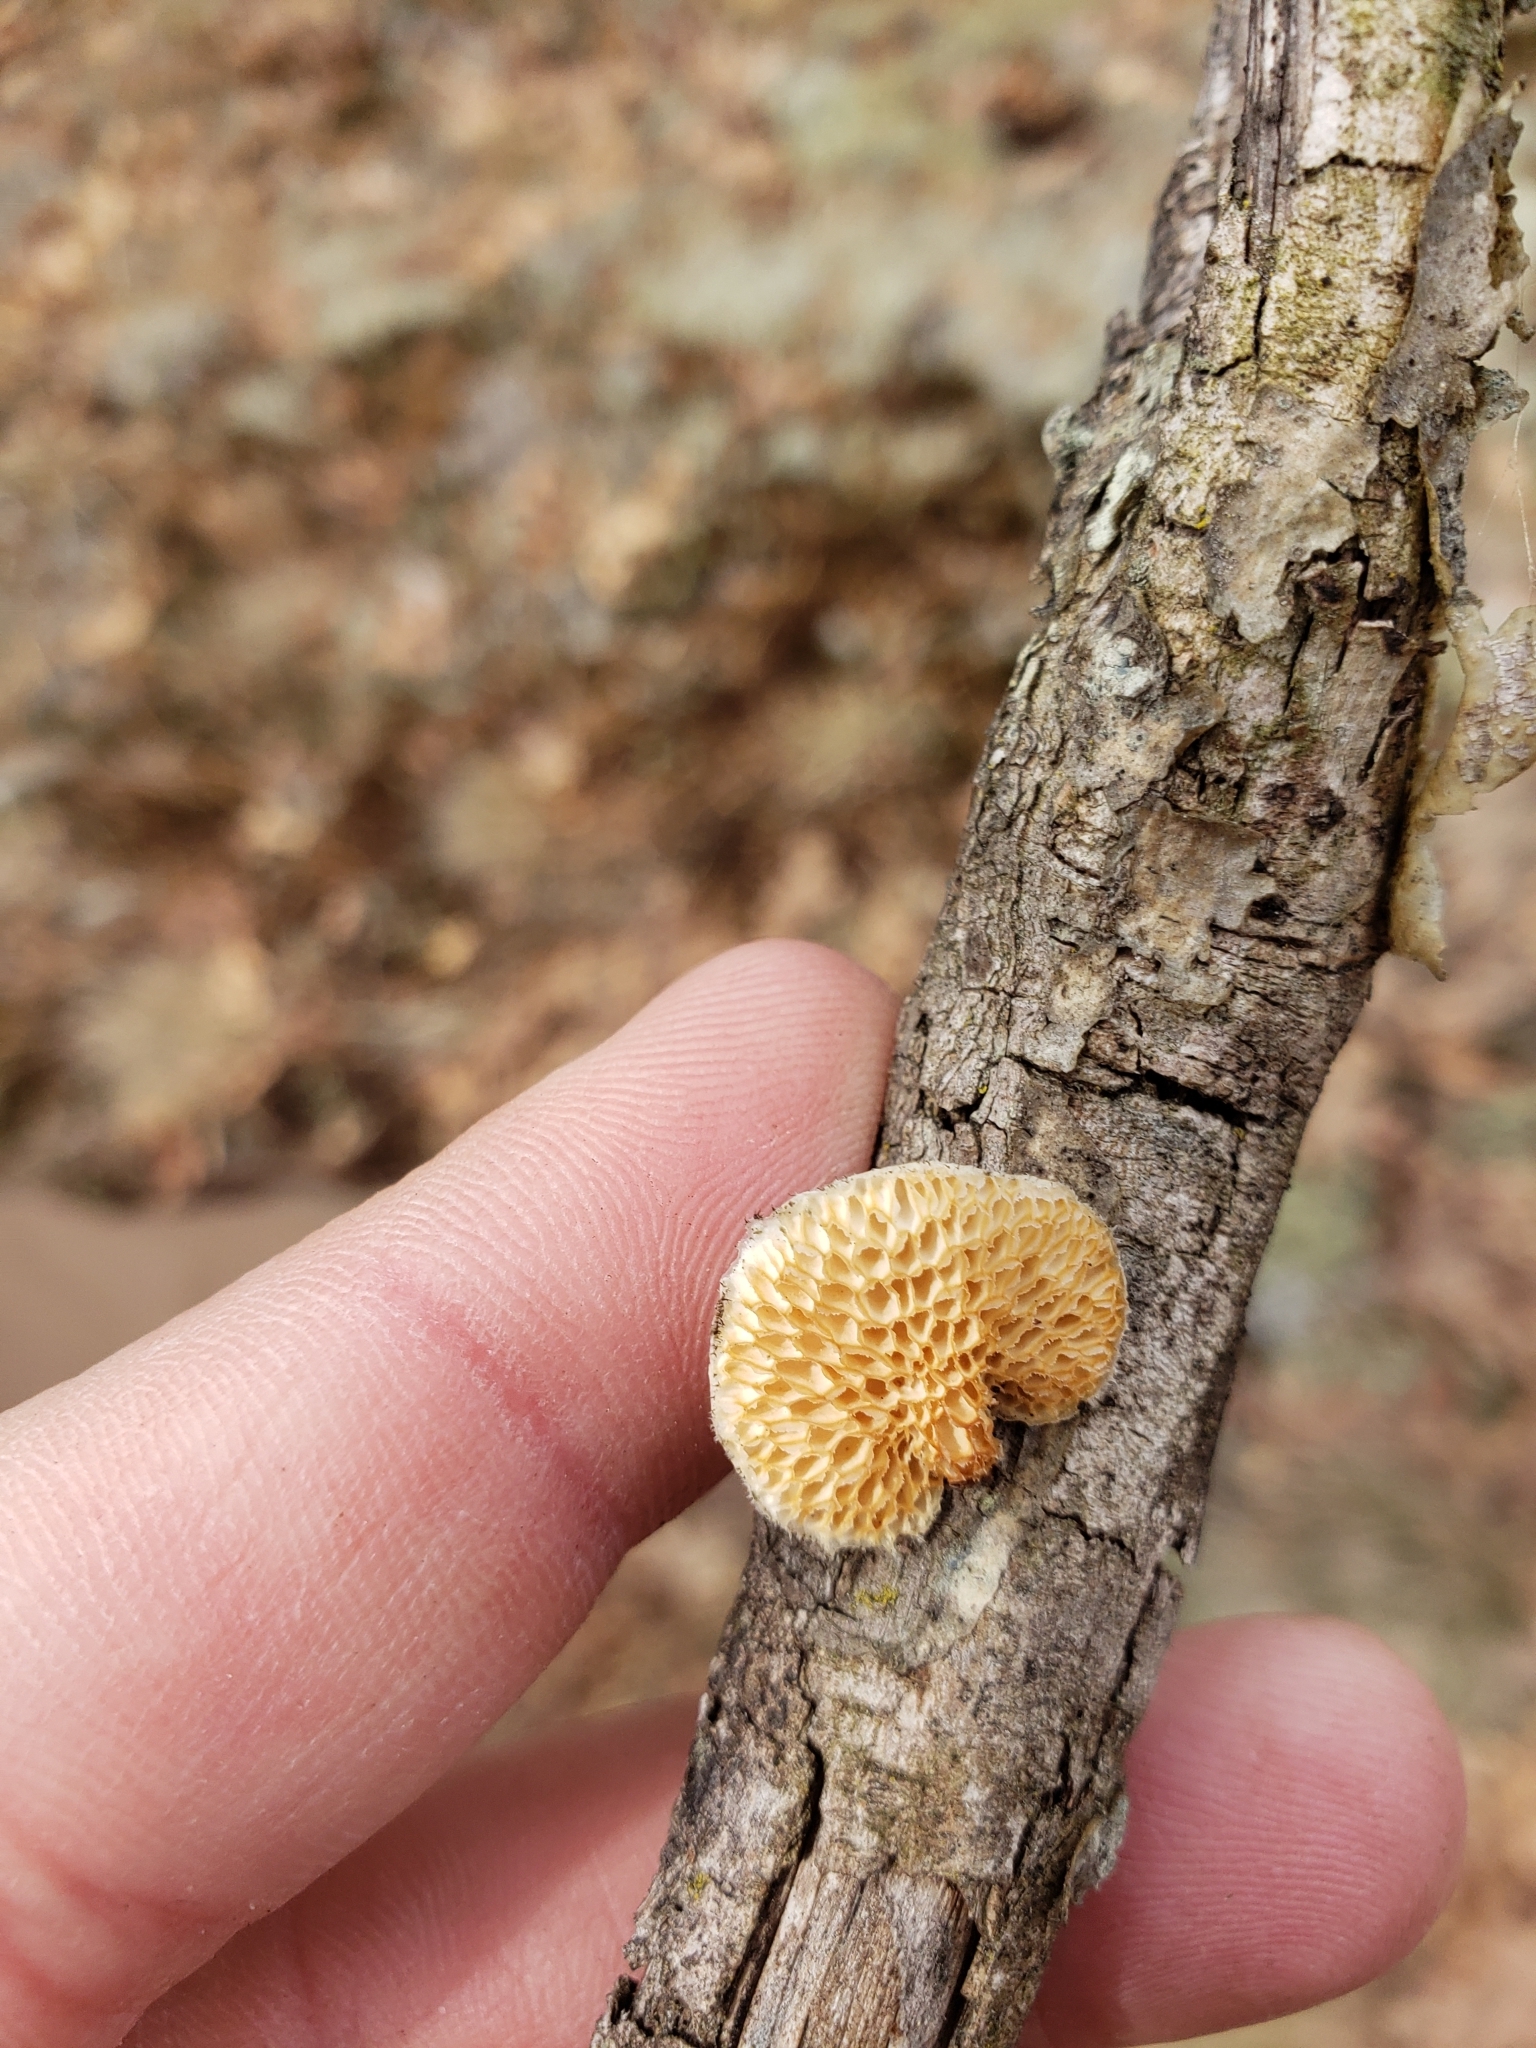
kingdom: Fungi
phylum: Basidiomycota
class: Agaricomycetes
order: Polyporales
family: Polyporaceae
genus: Neofavolus
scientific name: Neofavolus alveolaris
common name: Hexagonal-pored polypore
